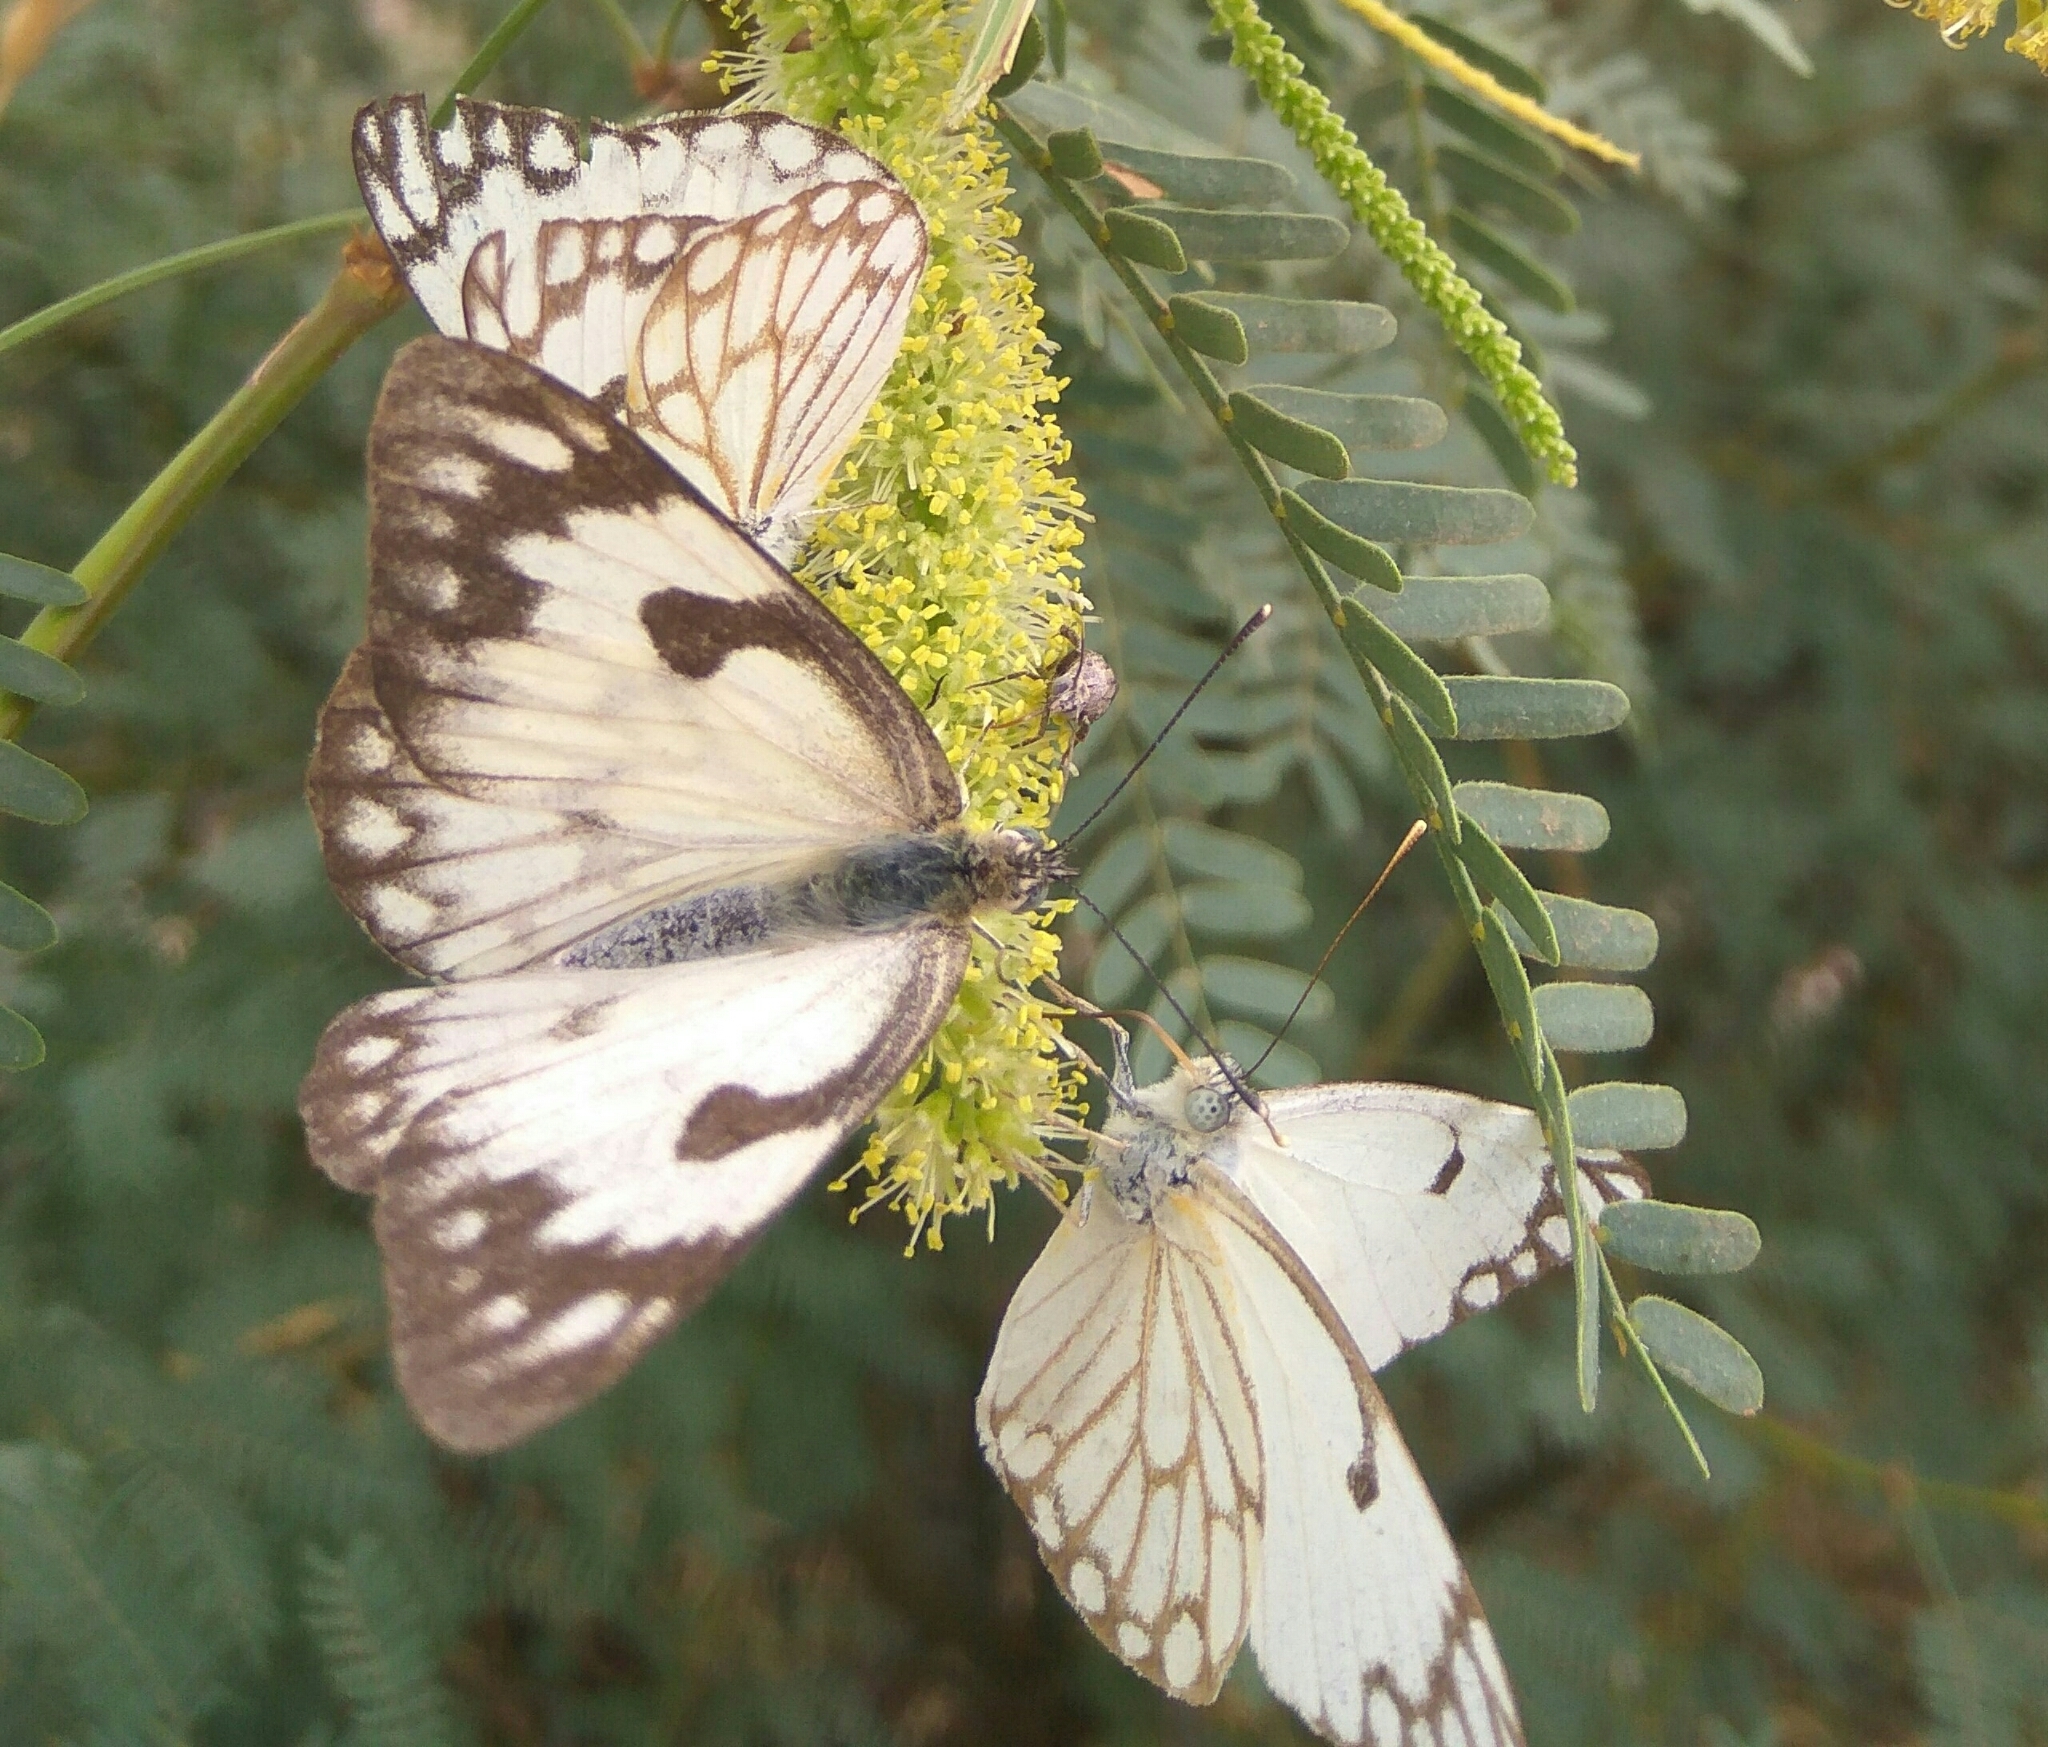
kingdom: Animalia
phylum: Arthropoda
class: Insecta
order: Lepidoptera
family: Pieridae
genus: Belenois
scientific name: Belenois aurota
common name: Brown-veined white
